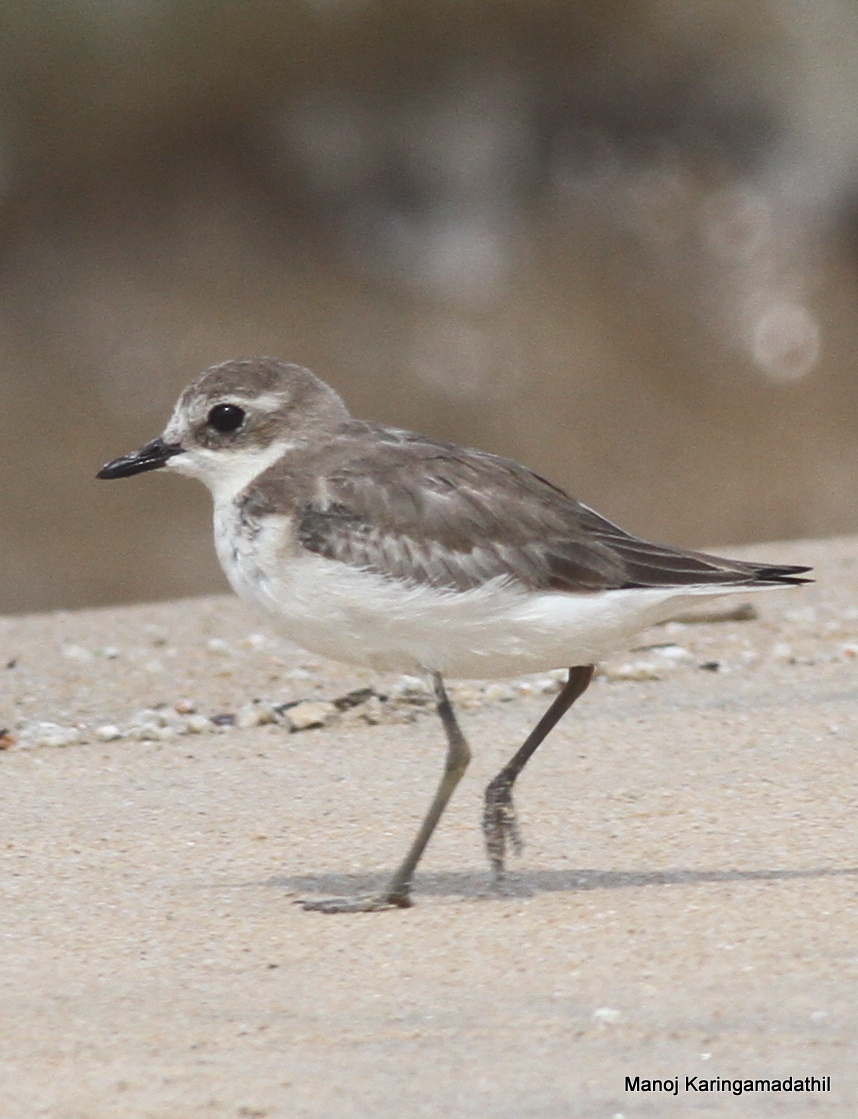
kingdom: Animalia
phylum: Chordata
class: Aves
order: Charadriiformes
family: Charadriidae
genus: Anarhynchus
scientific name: Anarhynchus
